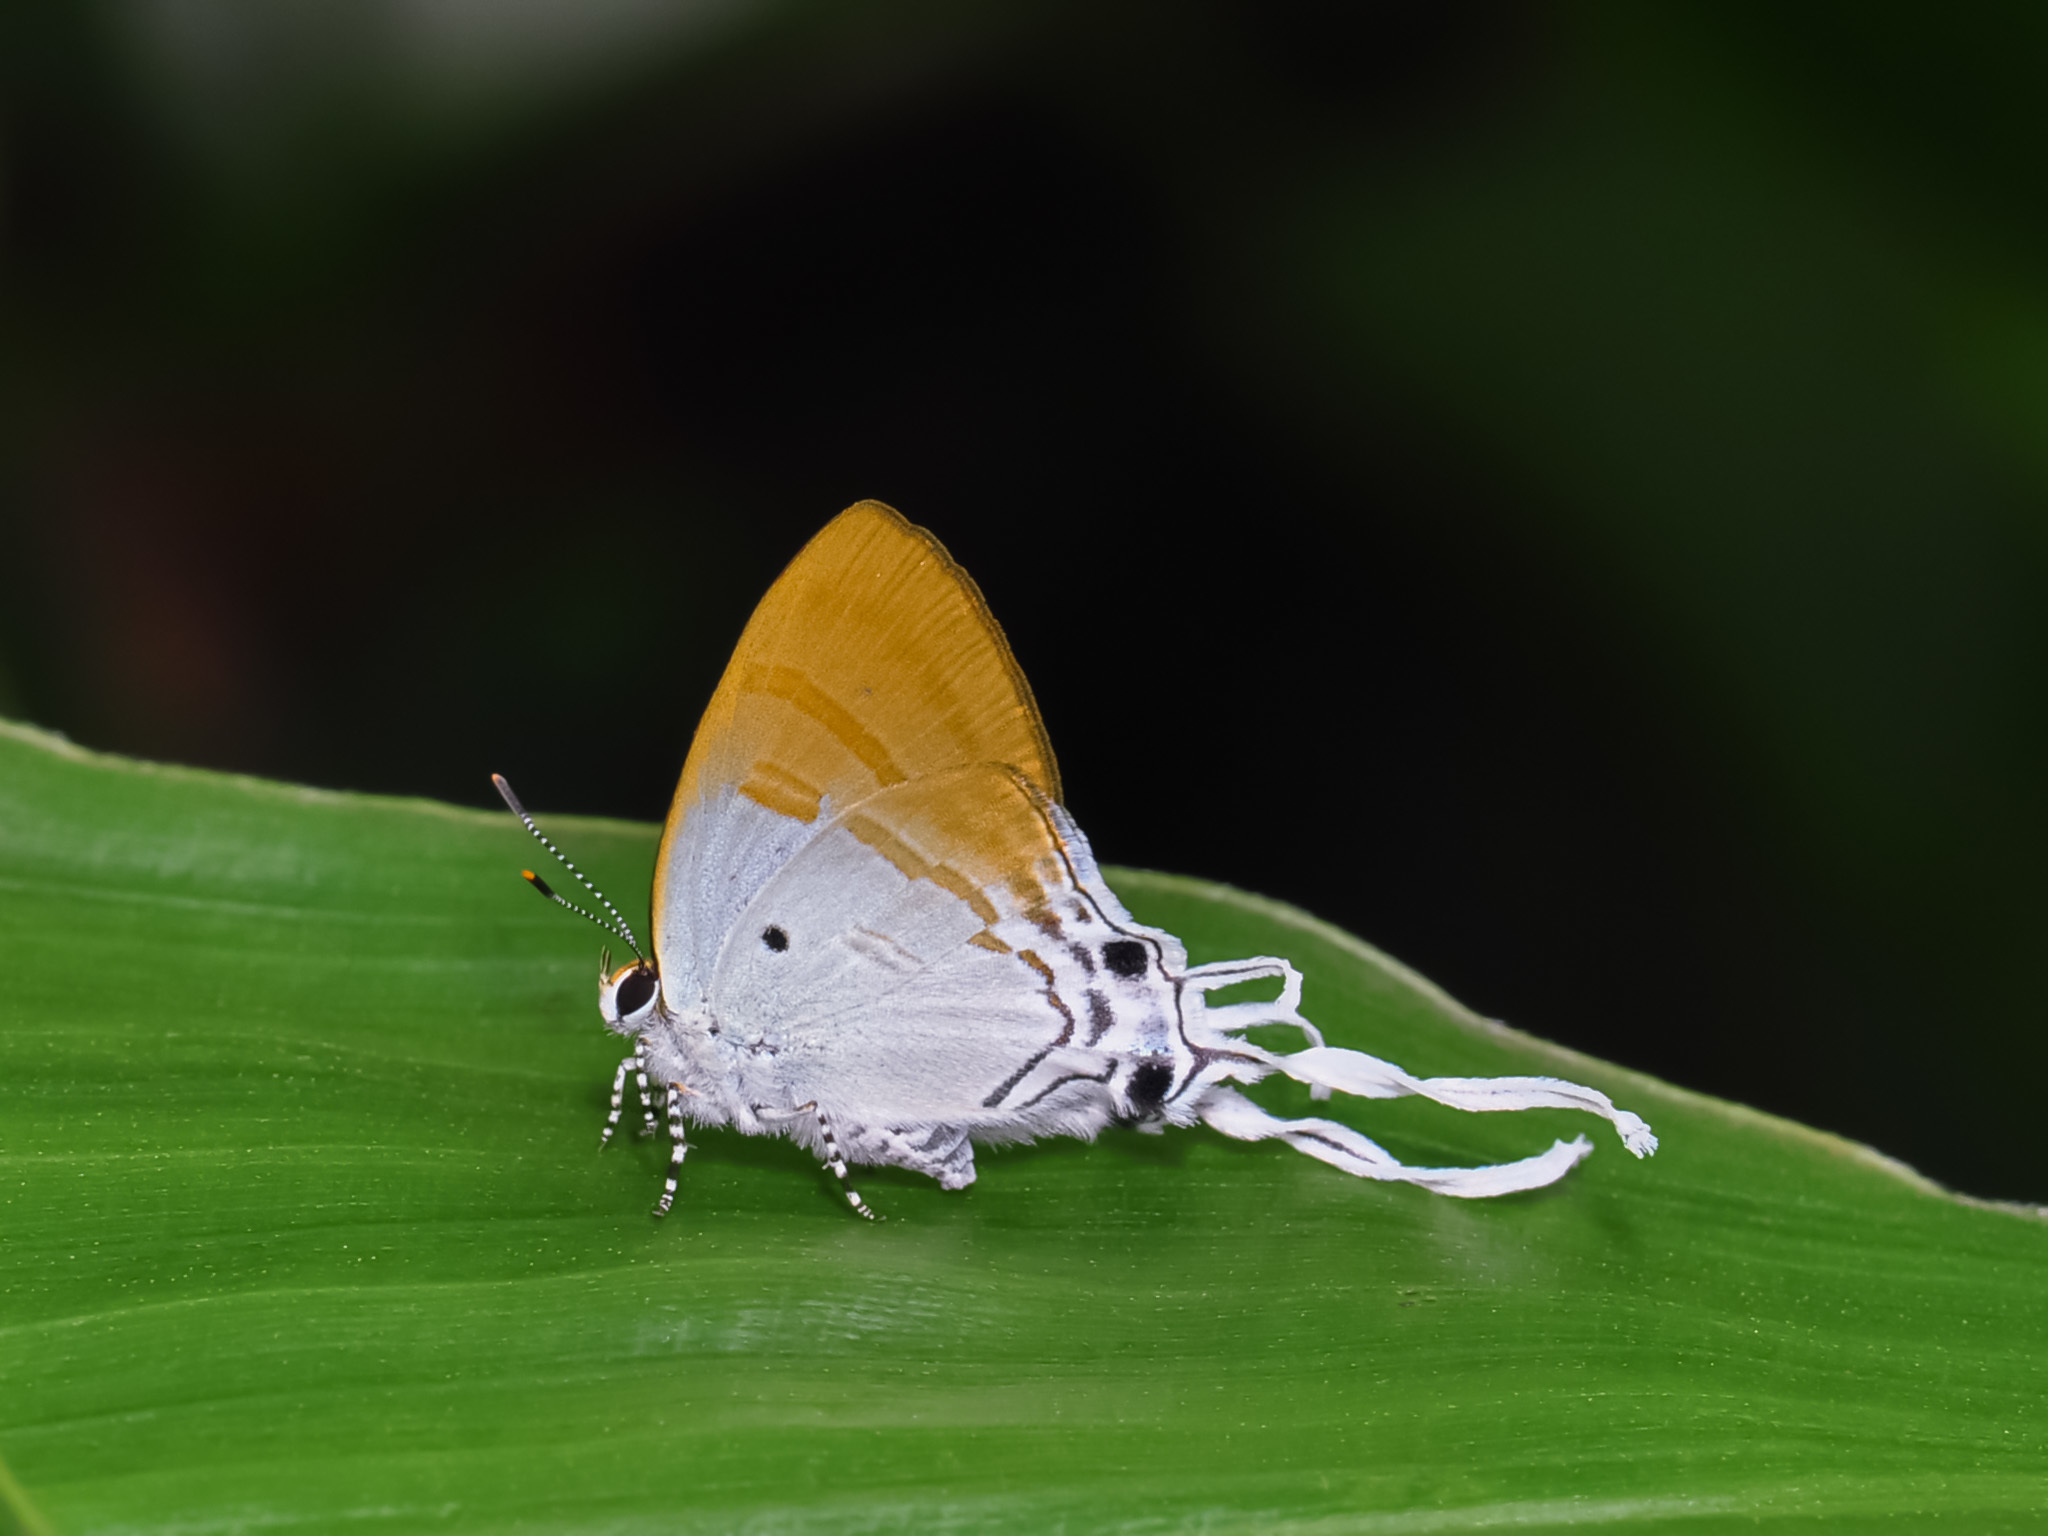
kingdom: Animalia
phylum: Arthropoda
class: Insecta
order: Lepidoptera
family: Lycaenidae
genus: Zeltus
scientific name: Zeltus amasa
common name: Fluffy tit
